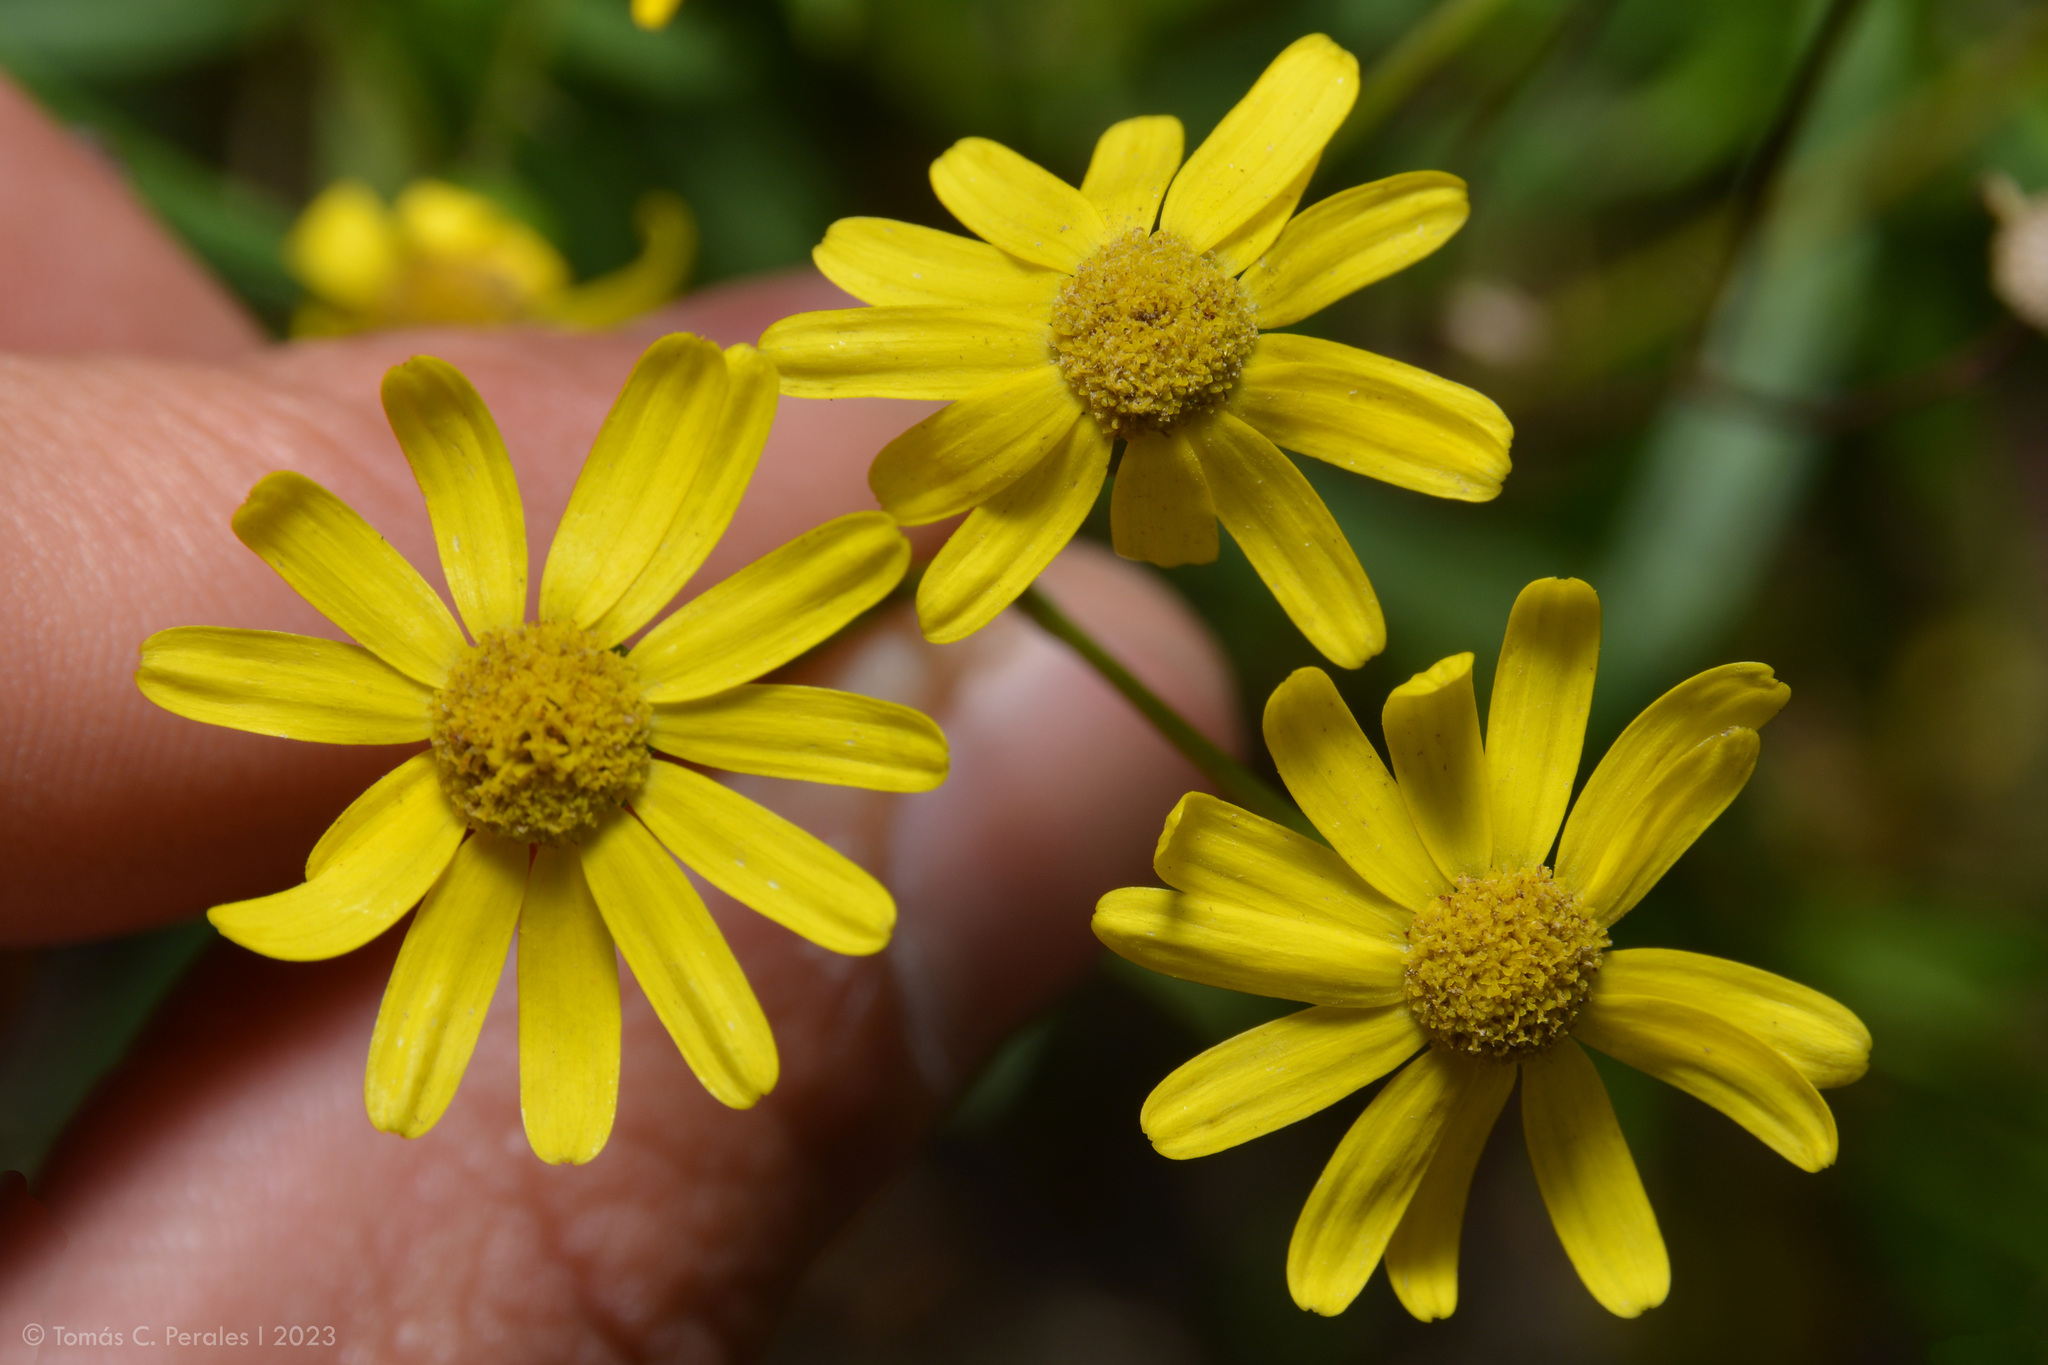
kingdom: Plantae
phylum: Tracheophyta
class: Magnoliopsida
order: Asterales
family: Asteraceae
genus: Senecio
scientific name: Senecio madagascariensis
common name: Madagascar ragwort
